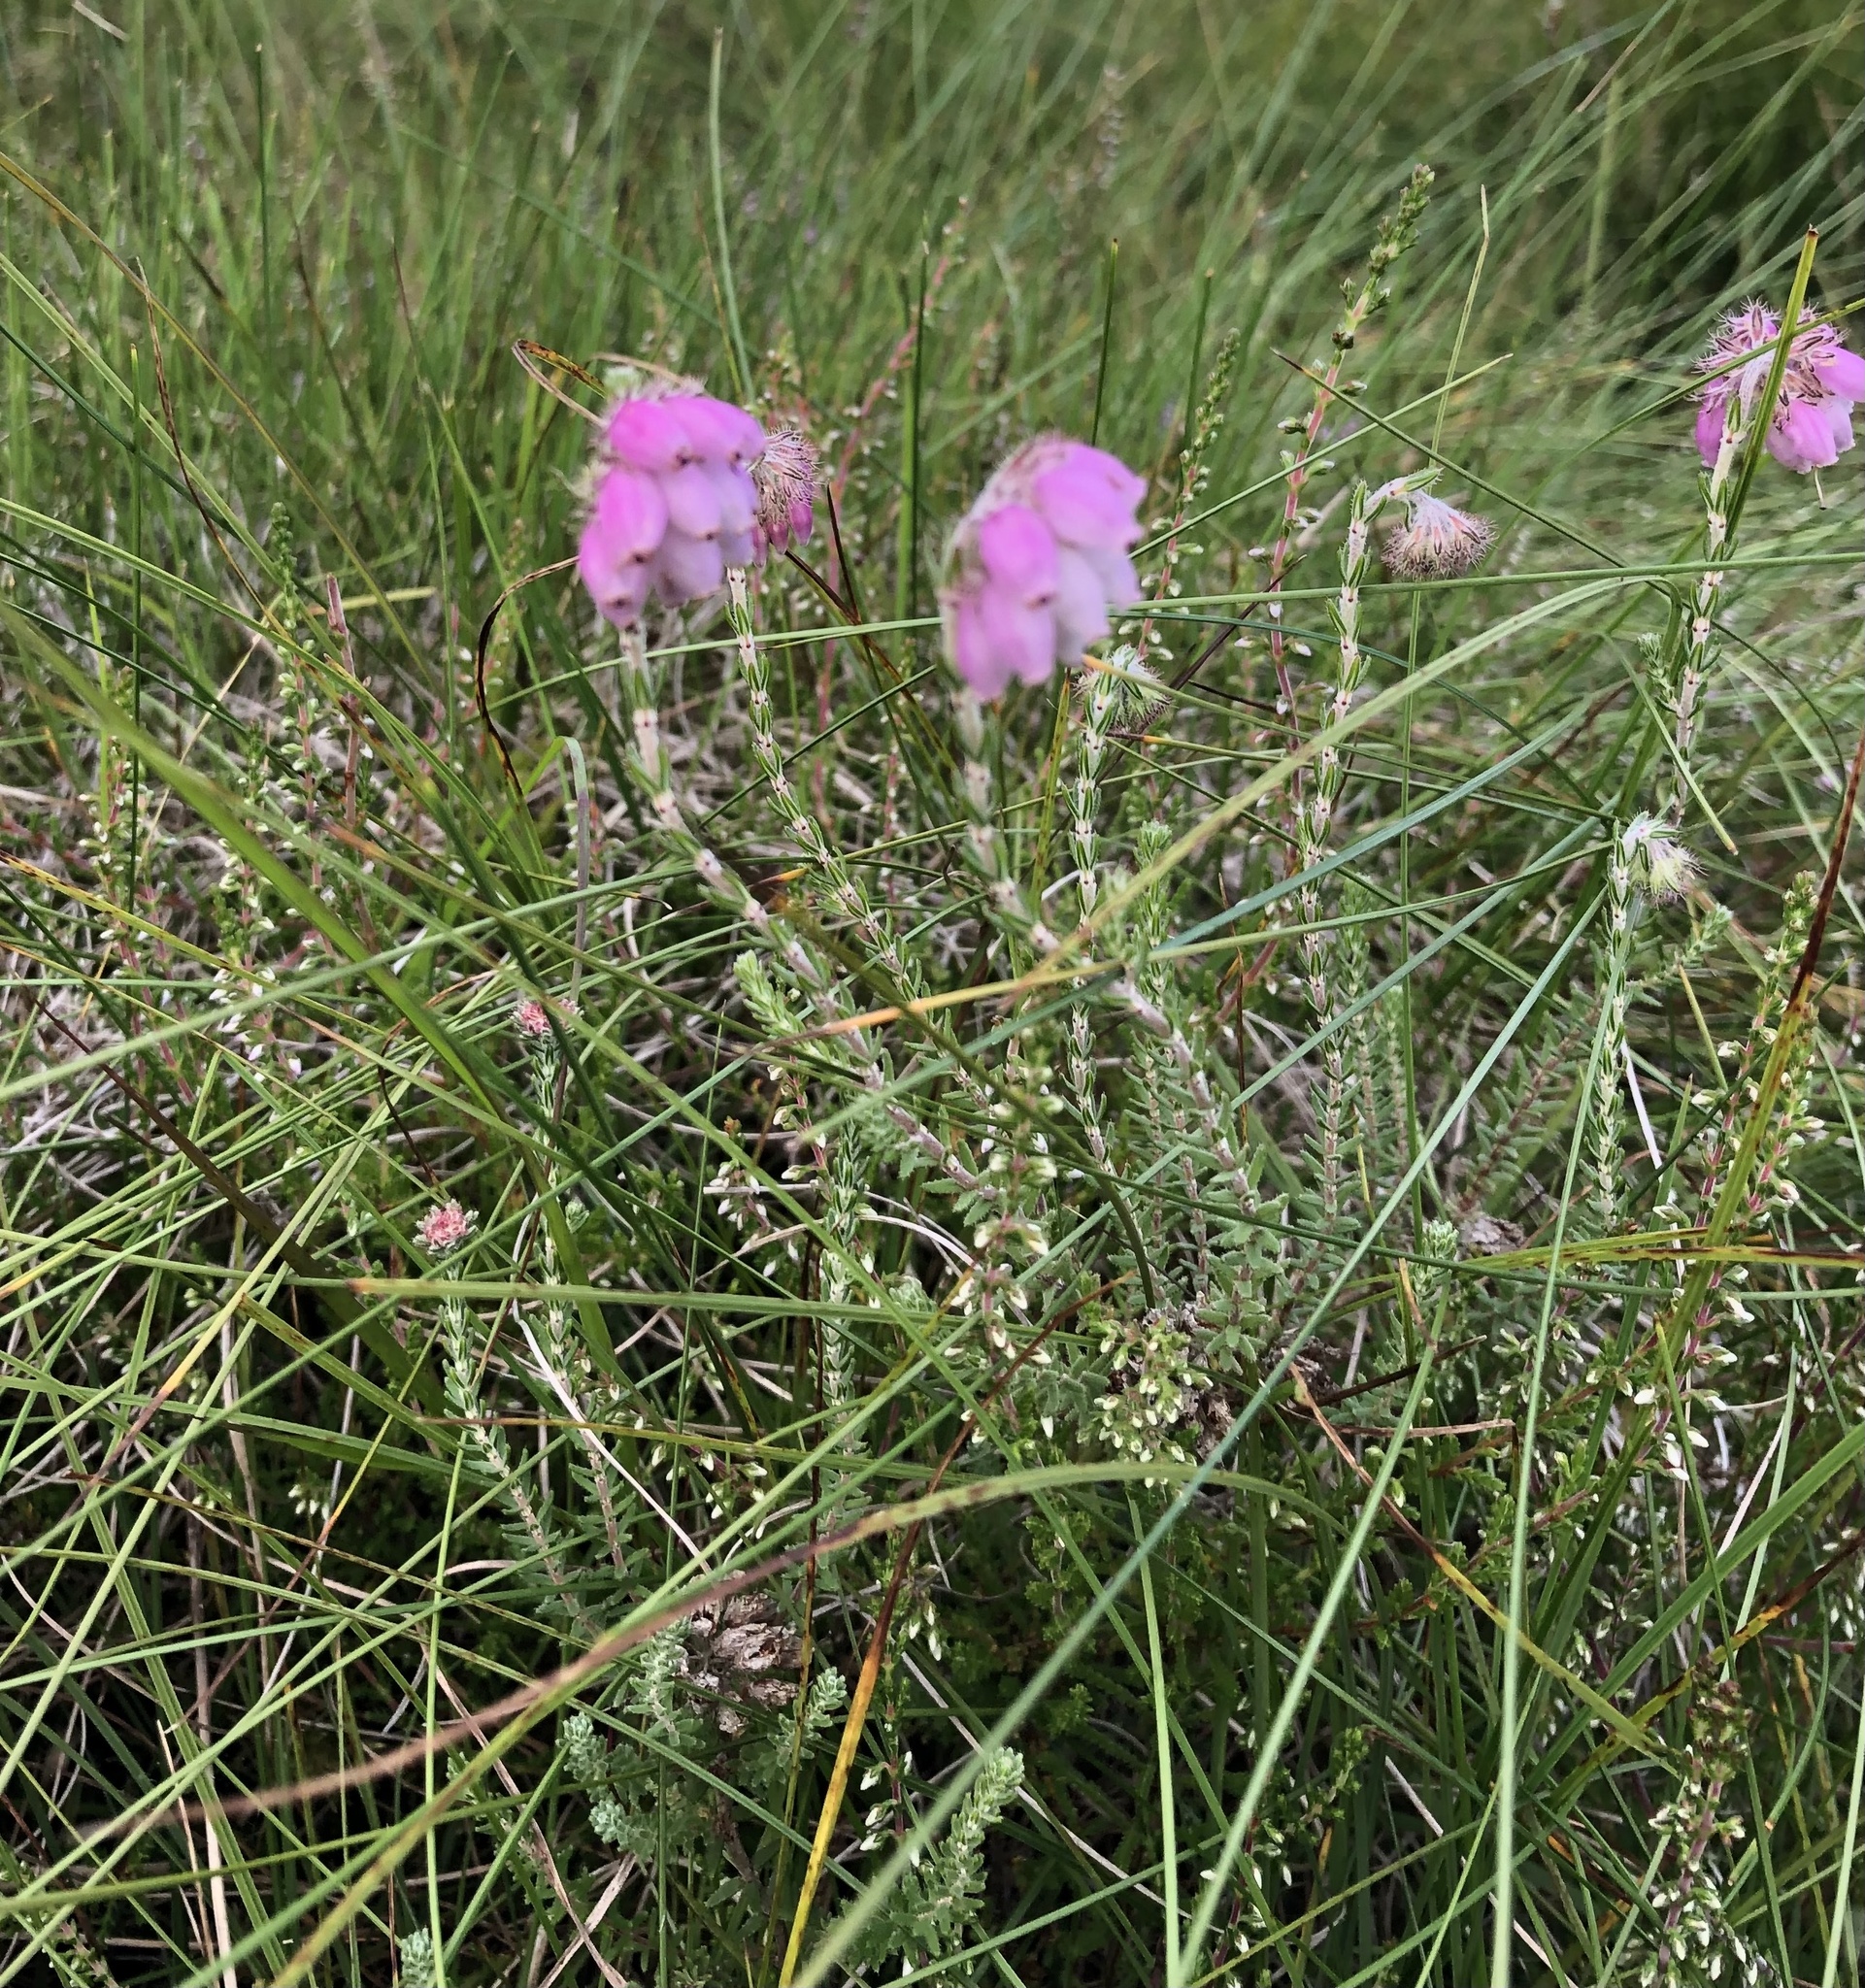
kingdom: Plantae
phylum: Tracheophyta
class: Magnoliopsida
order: Ericales
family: Ericaceae
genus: Erica
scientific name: Erica tetralix
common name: Cross-leaved heath
